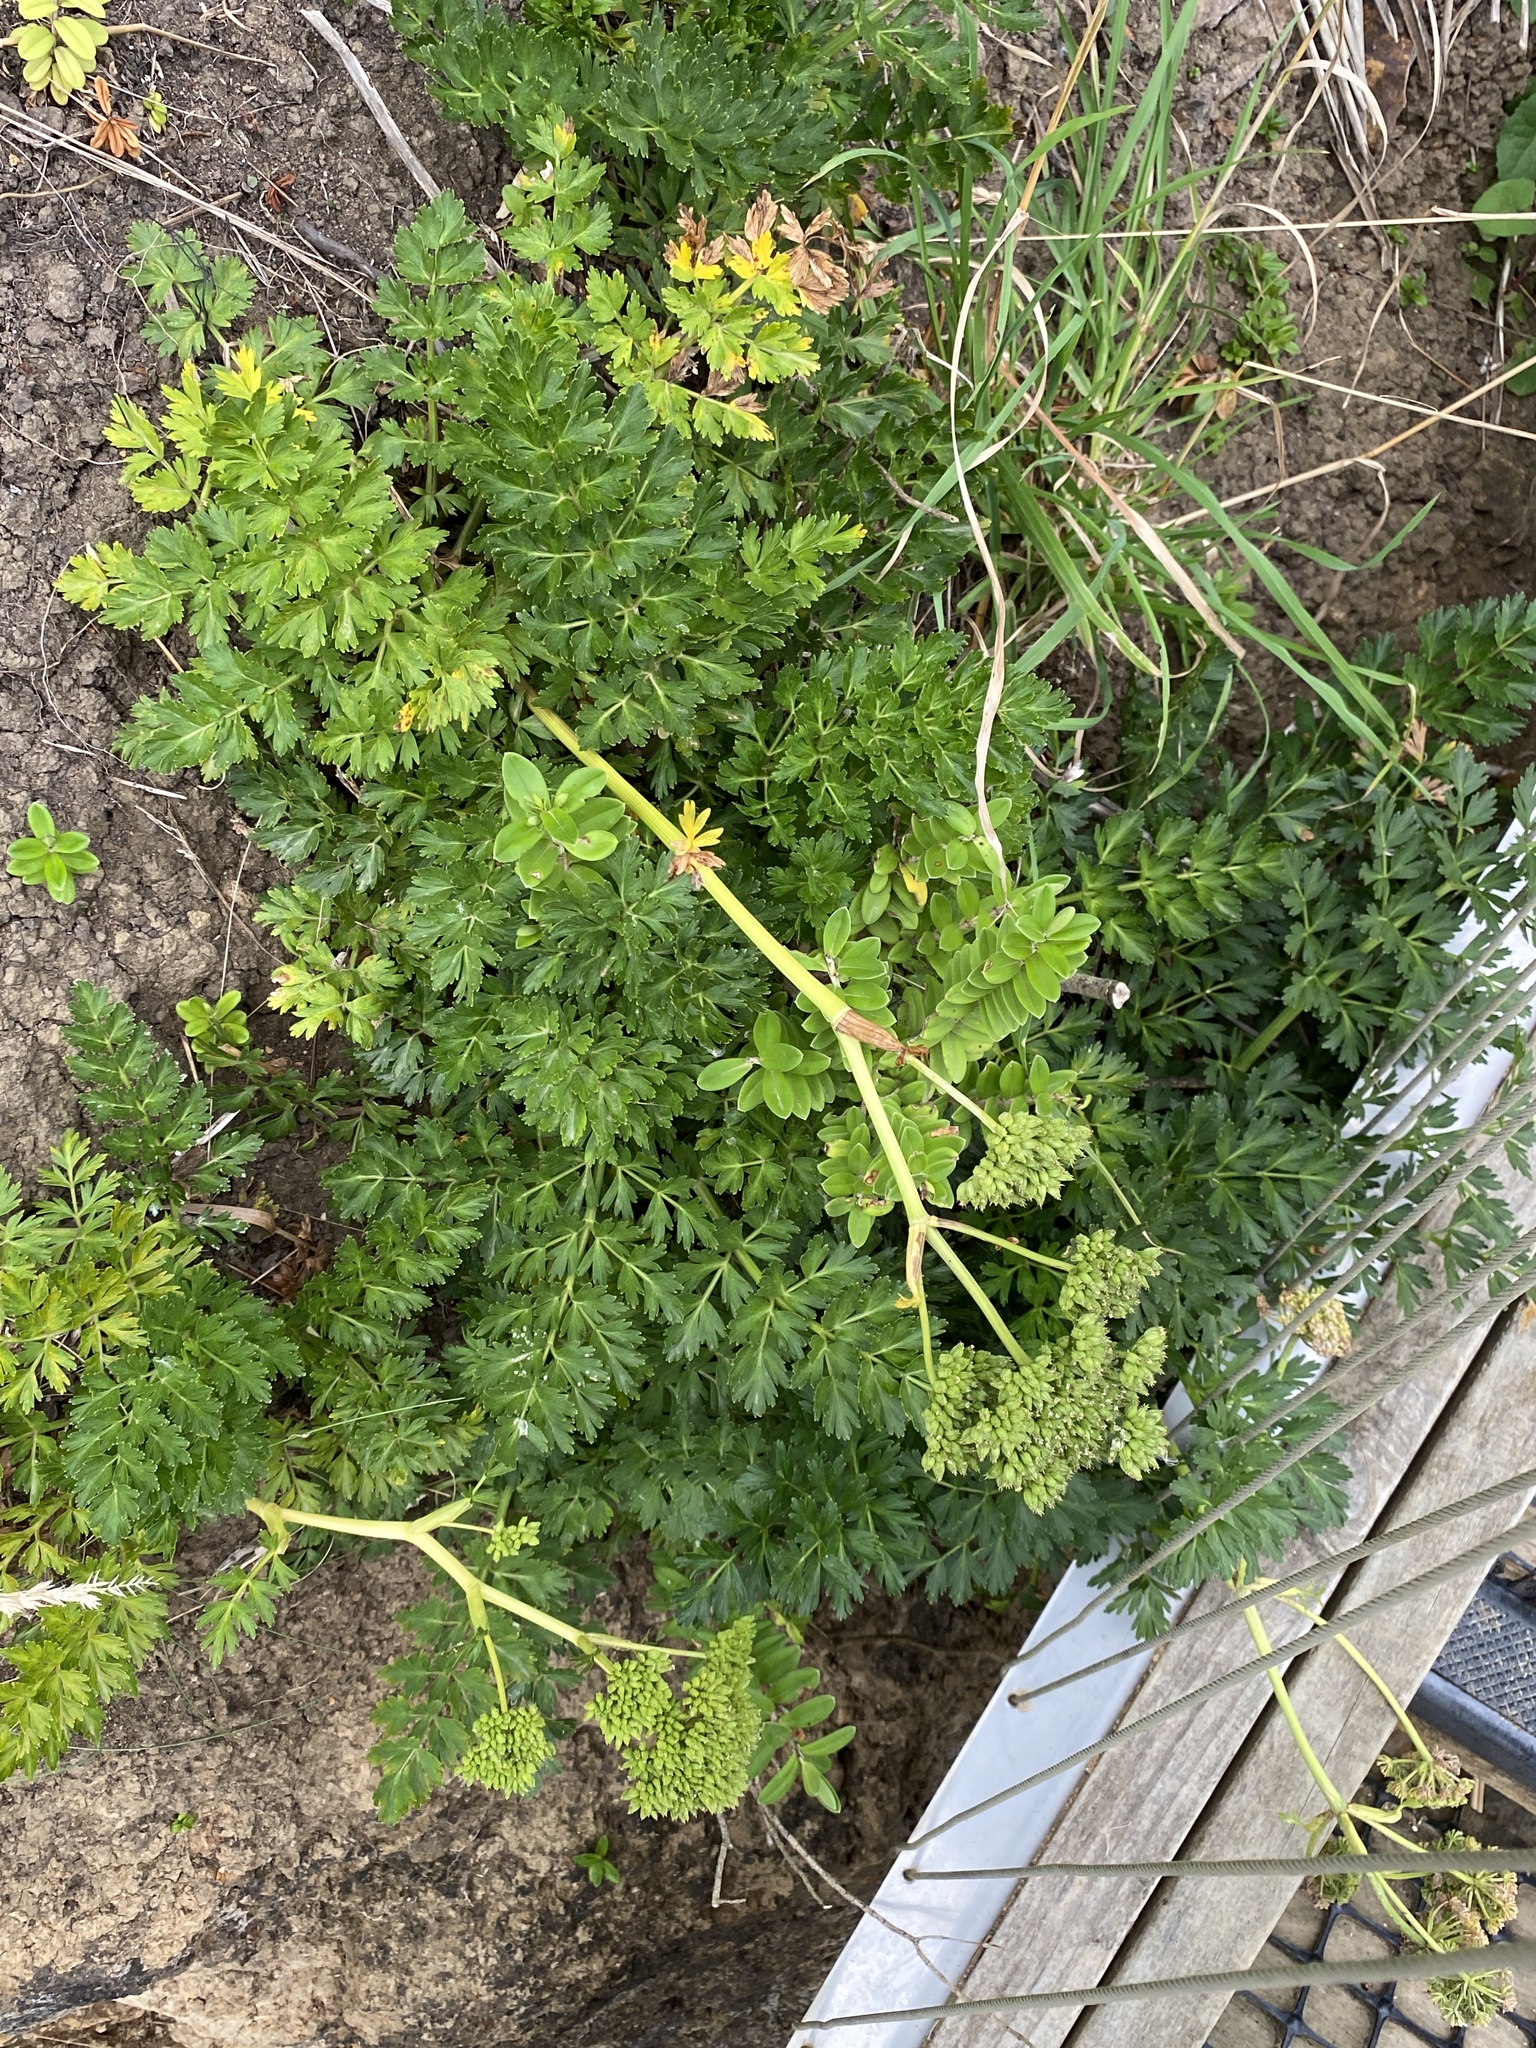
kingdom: Plantae
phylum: Tracheophyta
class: Magnoliopsida
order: Apiales
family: Apiaceae
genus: Anisotome
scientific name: Anisotome lyallii
